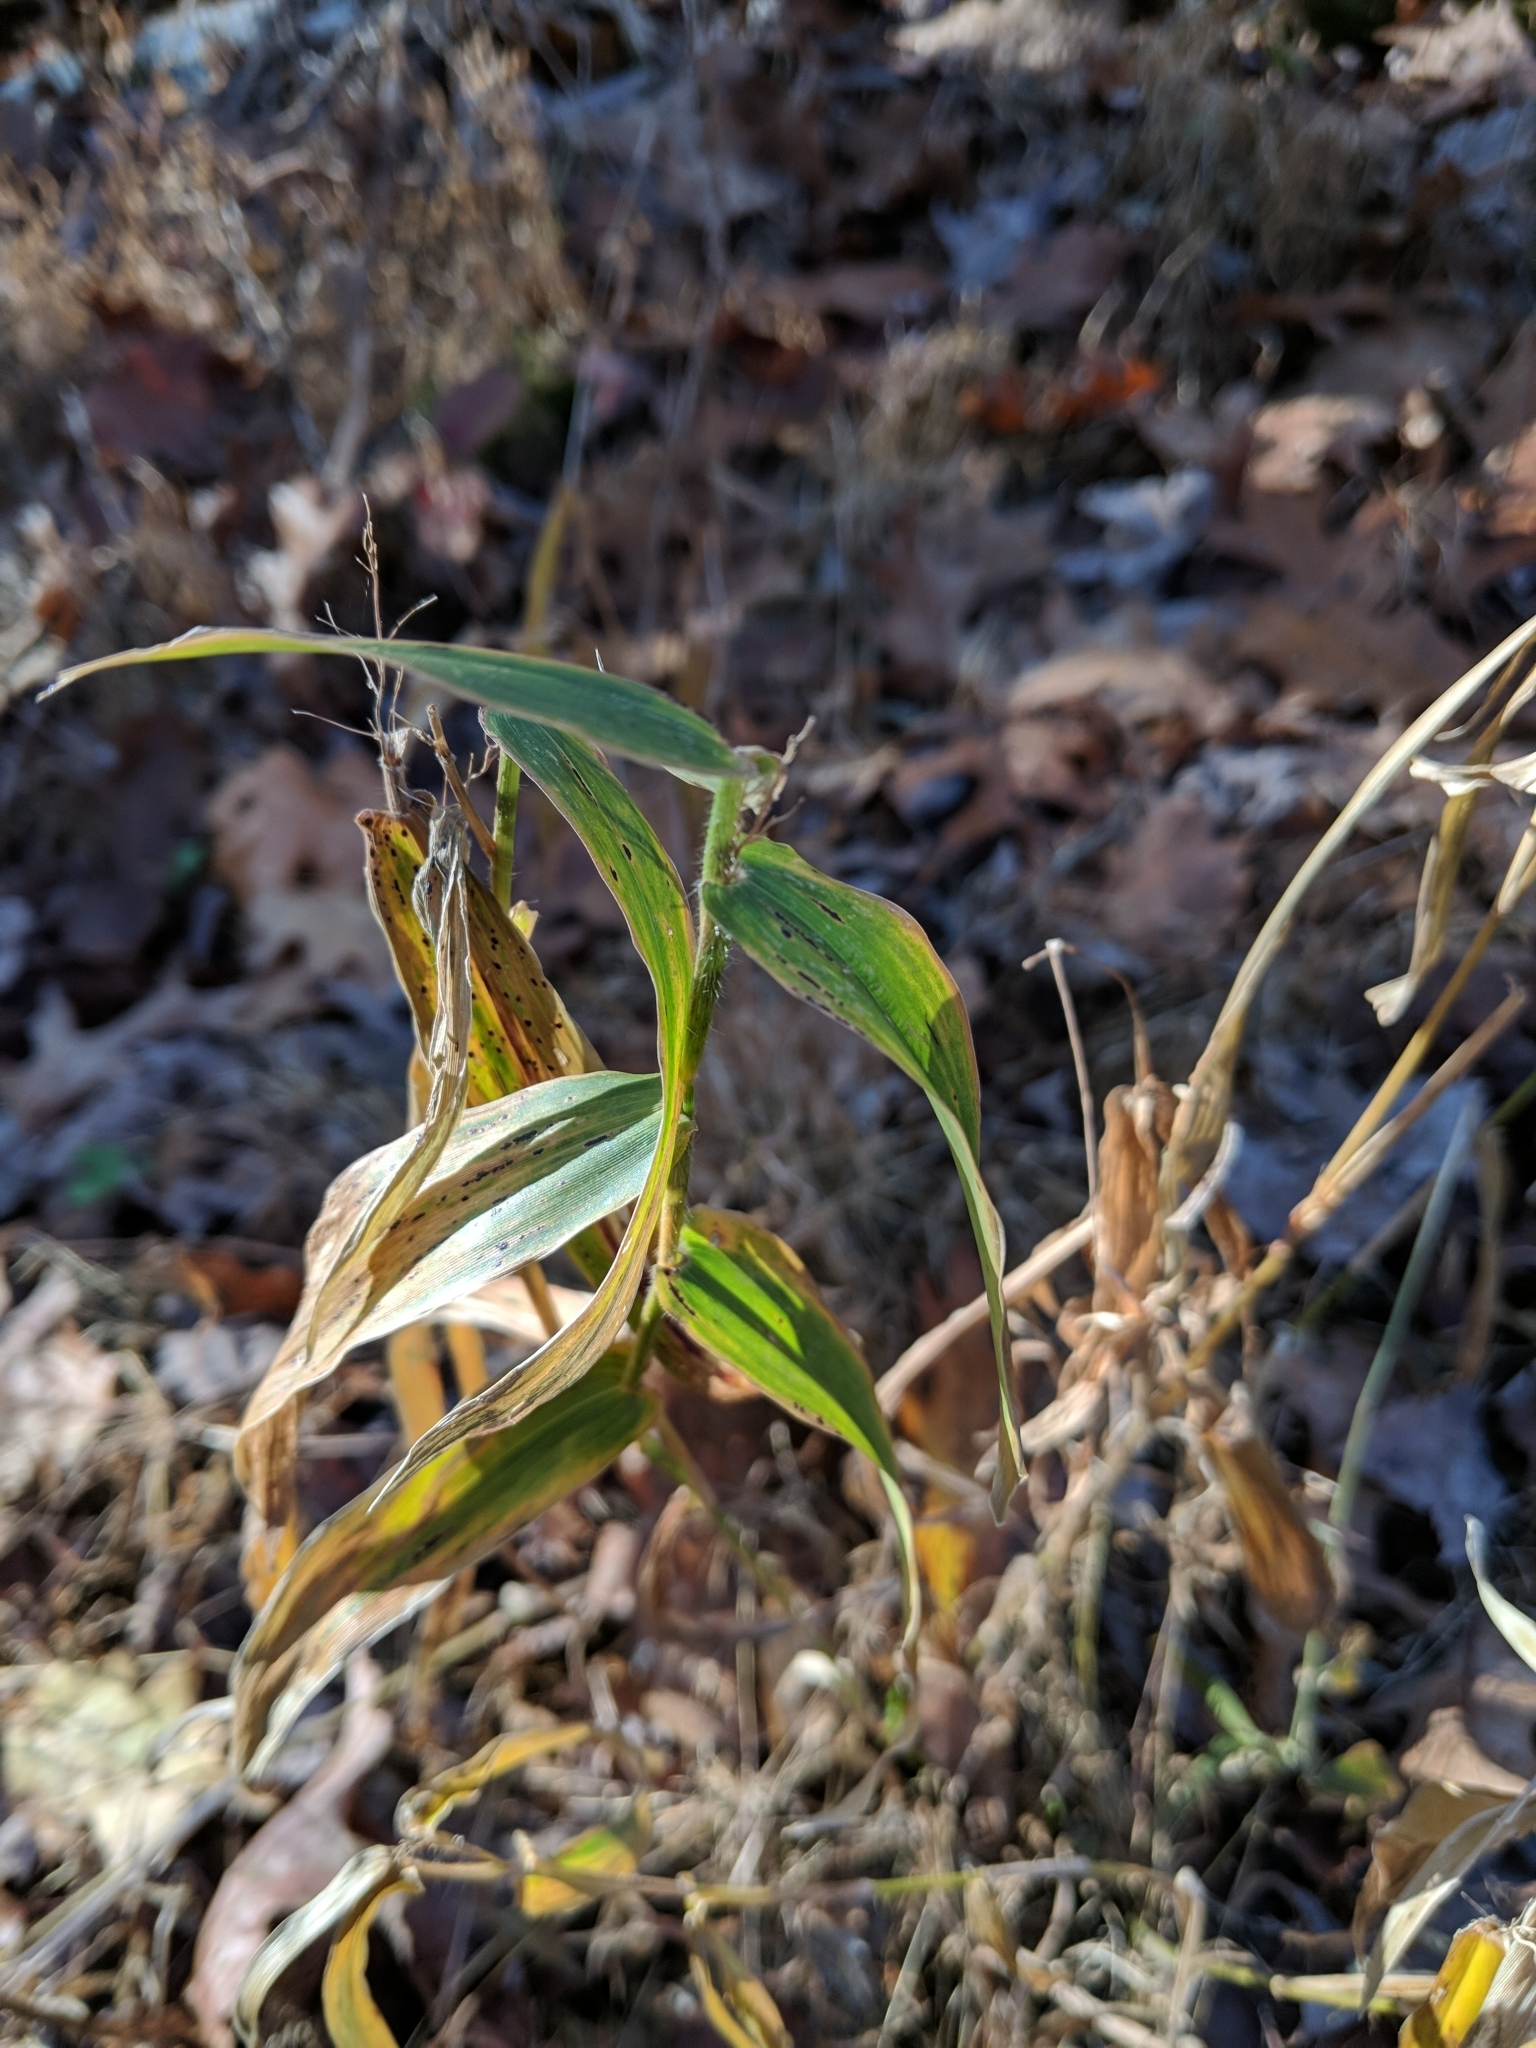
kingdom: Plantae
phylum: Tracheophyta
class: Liliopsida
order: Poales
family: Poaceae
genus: Dichanthelium
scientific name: Dichanthelium clandestinum
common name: Deer-tongue grass
